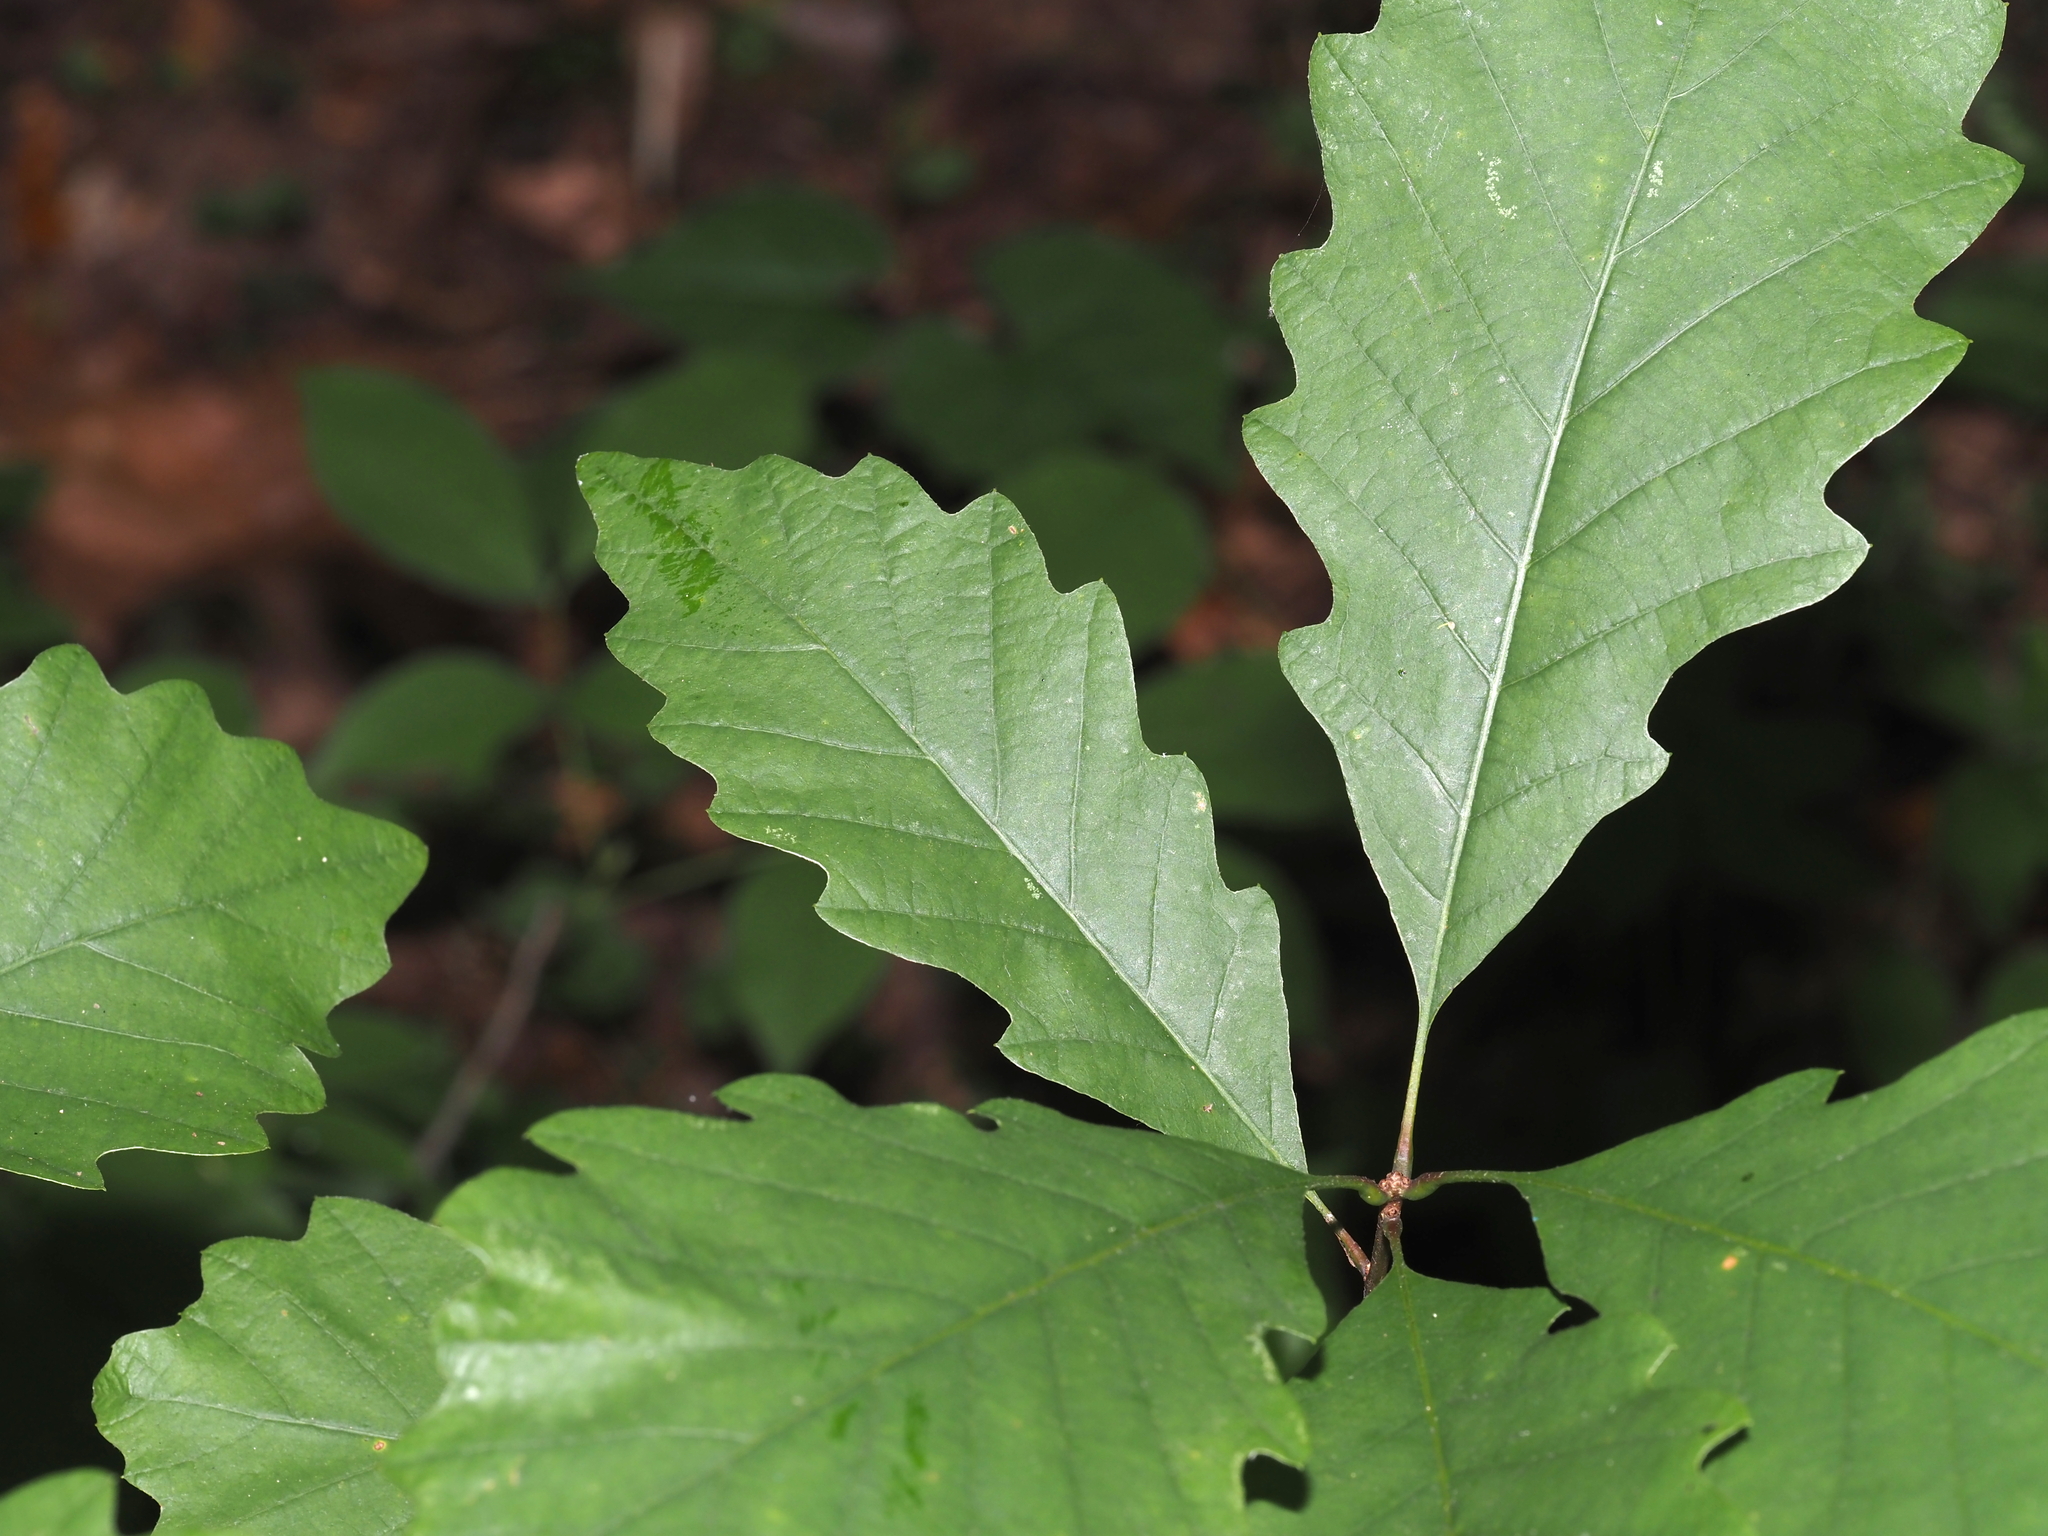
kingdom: Plantae
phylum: Tracheophyta
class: Magnoliopsida
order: Fagales
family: Fagaceae
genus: Quercus
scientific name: Quercus muehlenbergii
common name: Chinkapin oak
